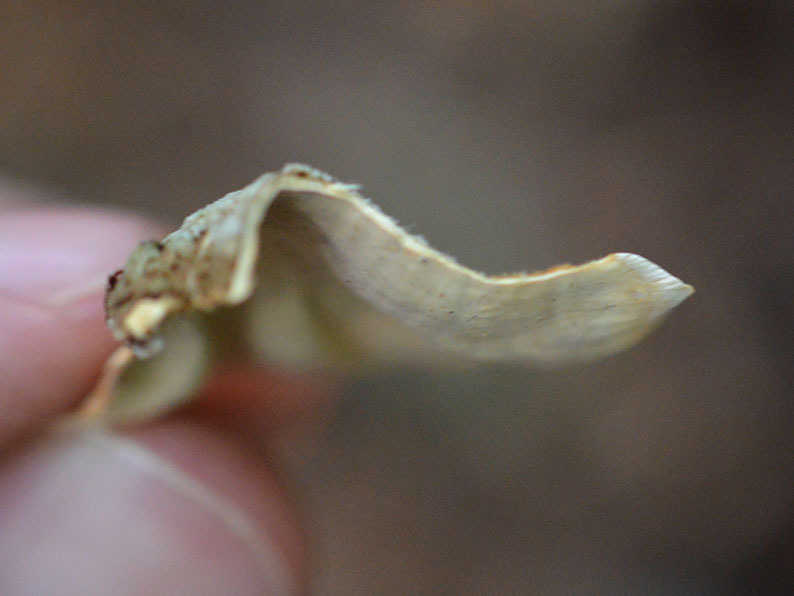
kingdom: Fungi
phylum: Basidiomycota
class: Agaricomycetes
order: Russulales
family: Stereaceae
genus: Stereum
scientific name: Stereum subtomentosum
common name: Yellowing curtain crust
